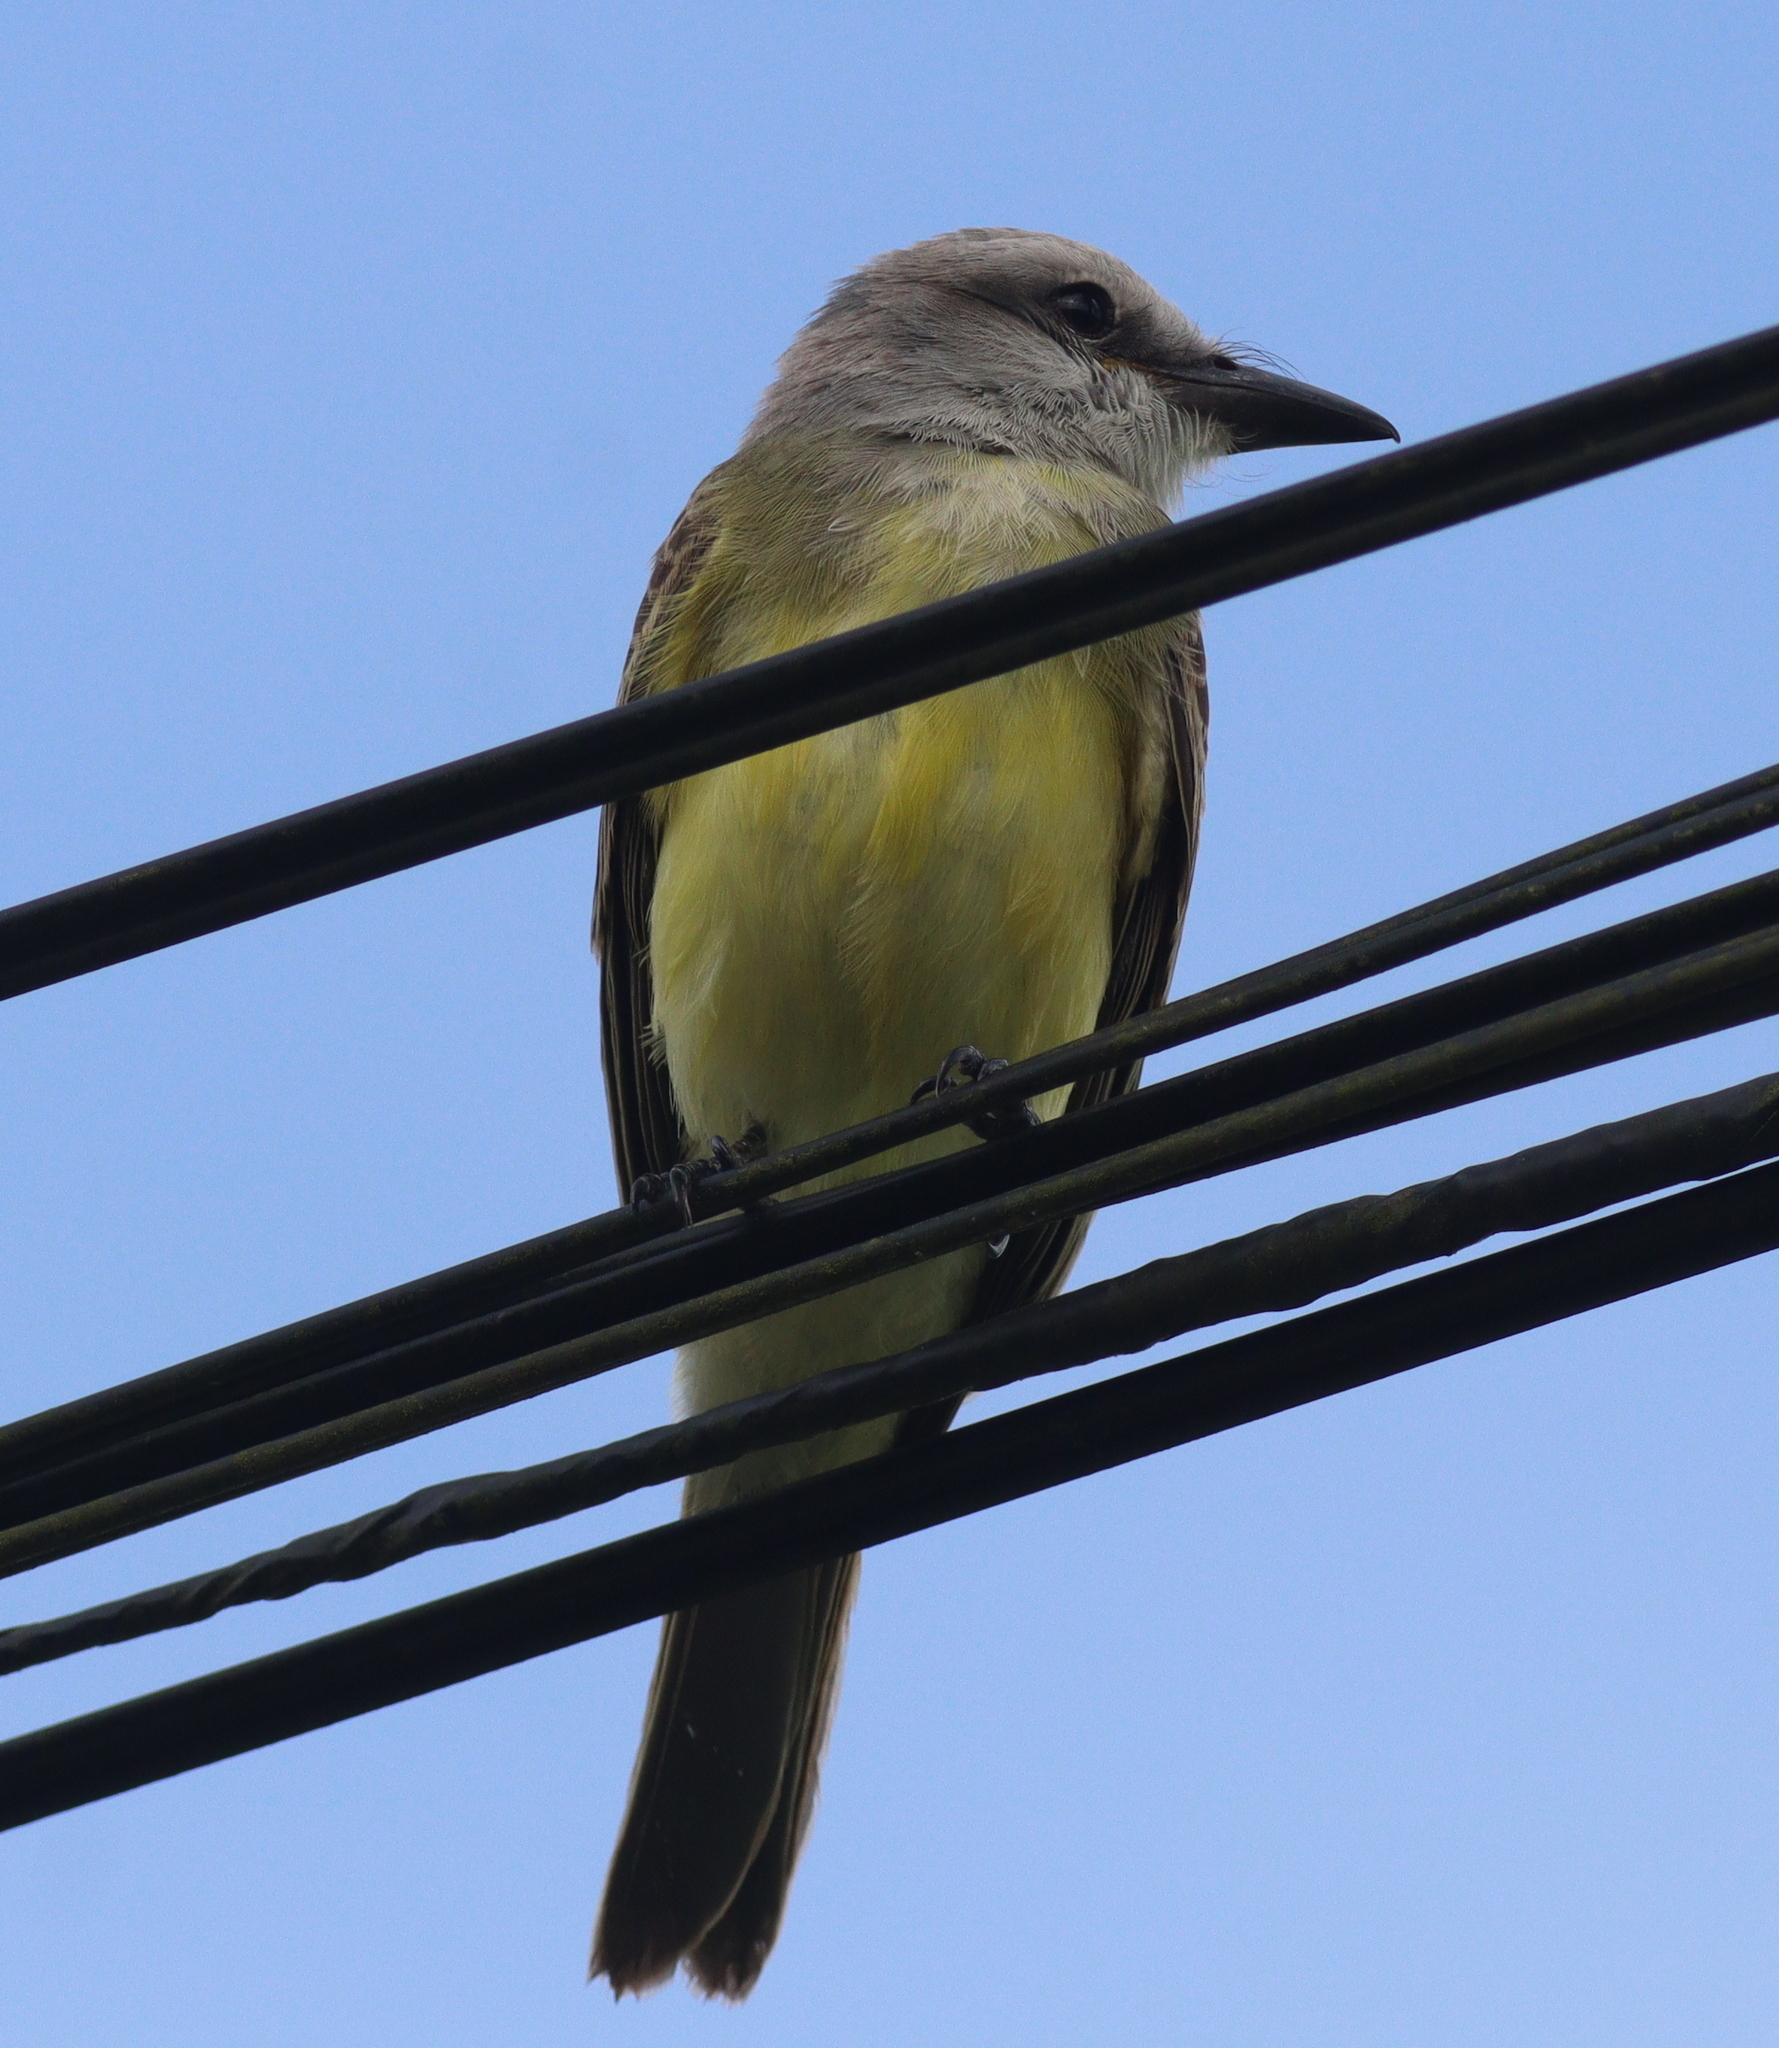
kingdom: Animalia
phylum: Chordata
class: Aves
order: Passeriformes
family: Tyrannidae
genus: Tyrannus
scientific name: Tyrannus melancholicus
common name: Tropical kingbird
